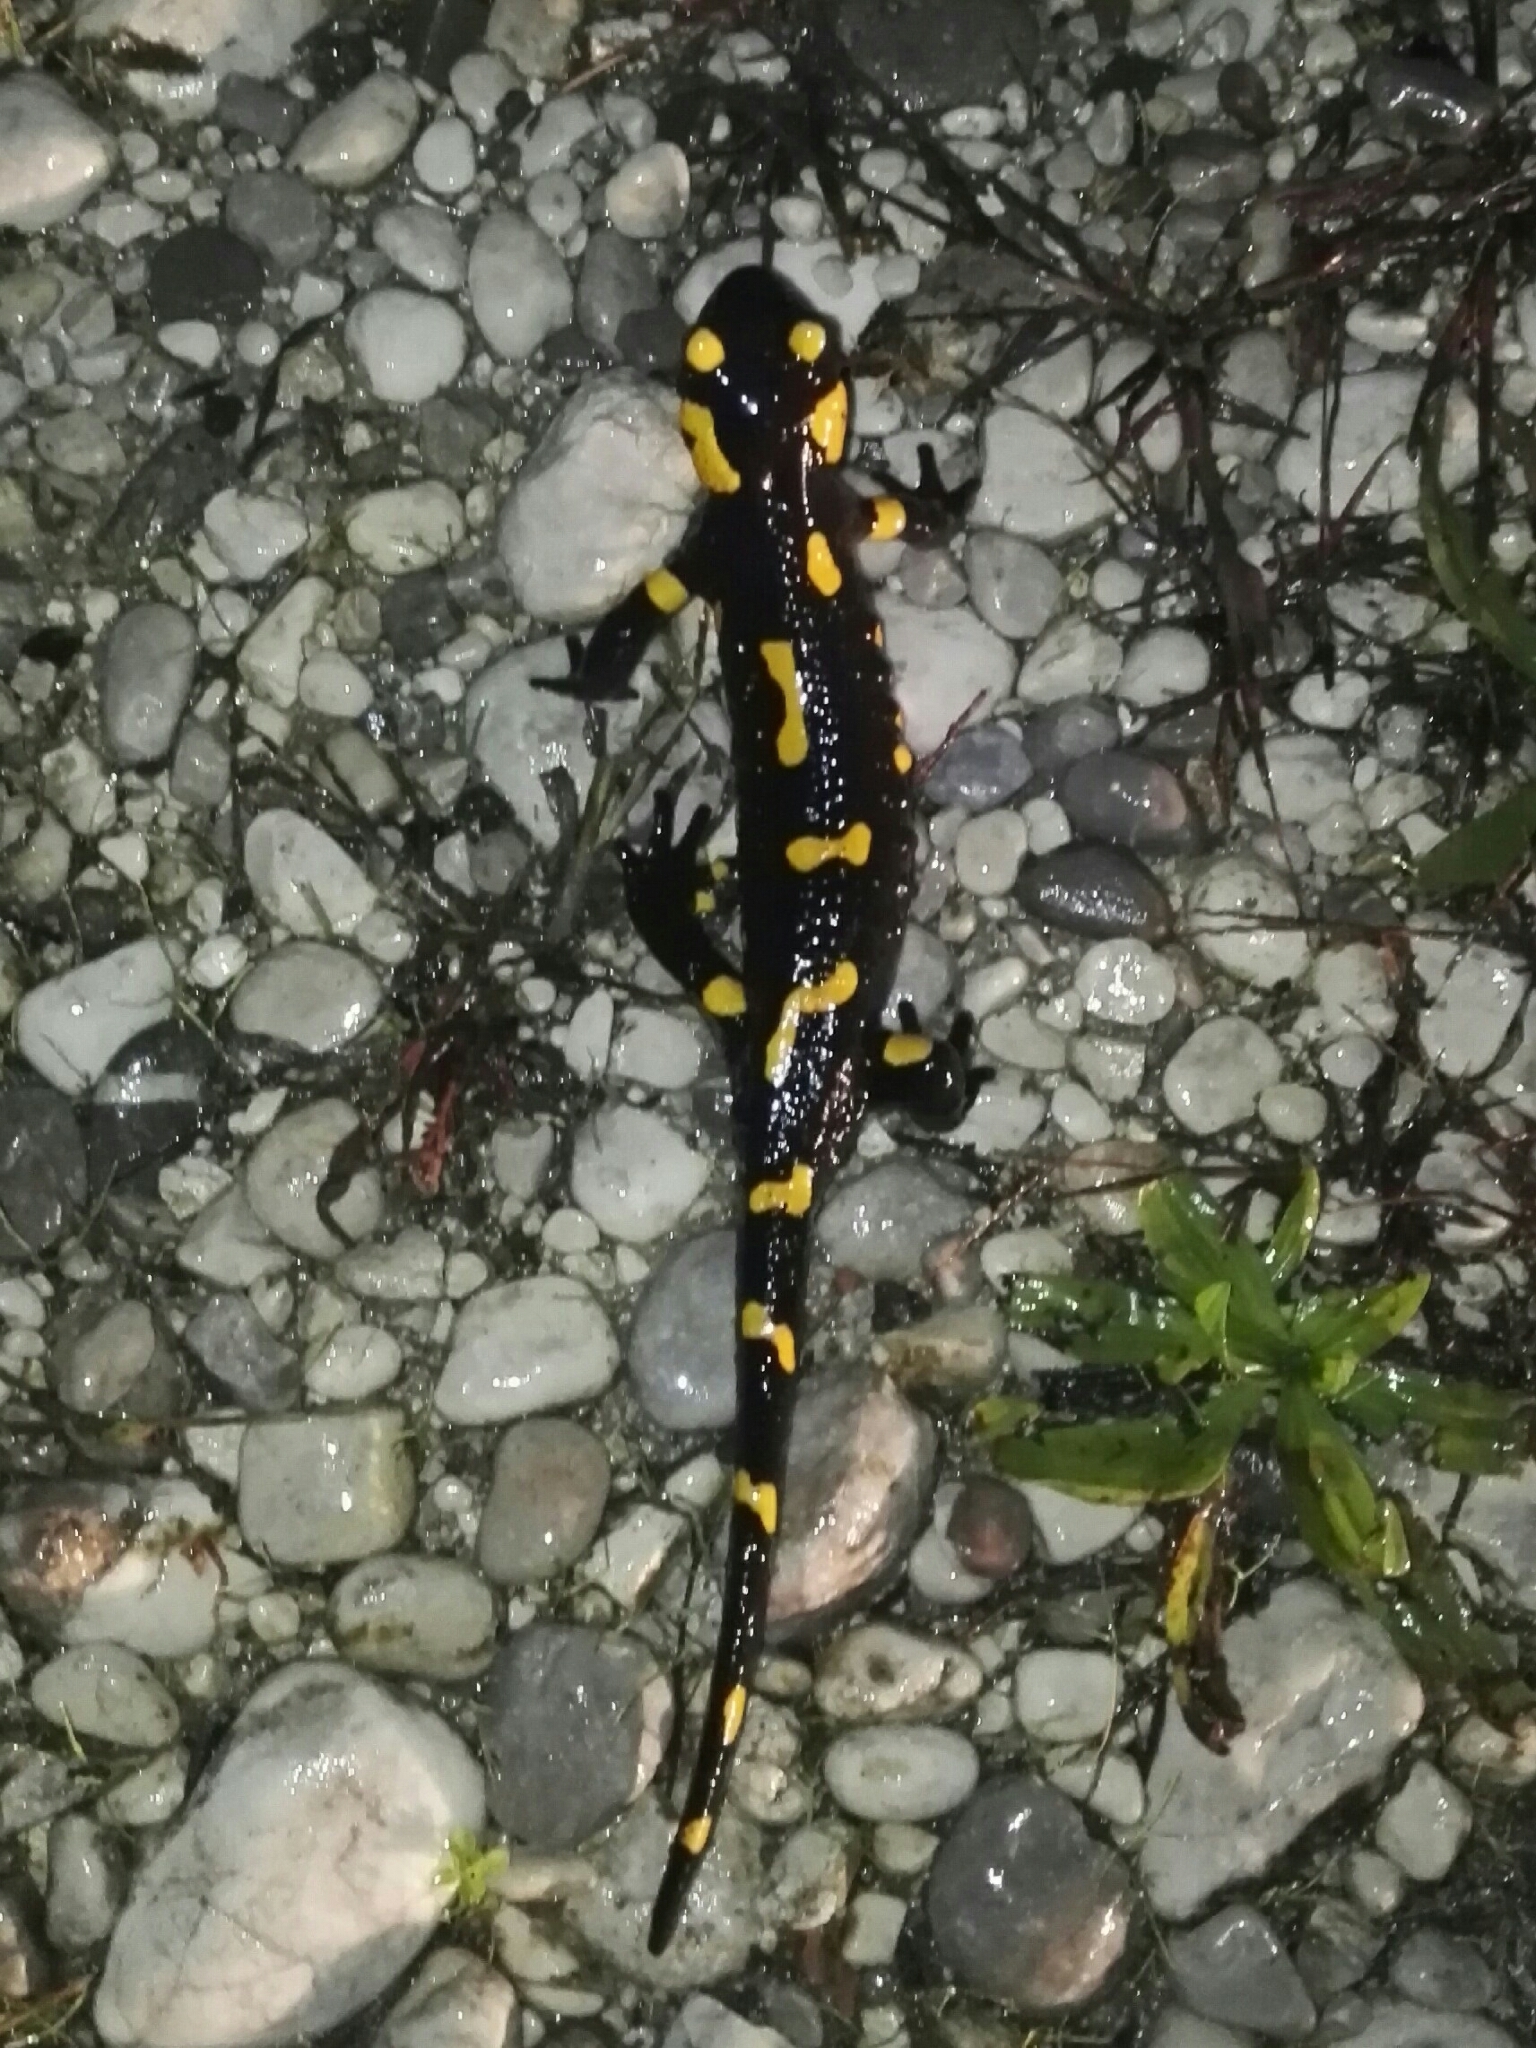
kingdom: Animalia
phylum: Chordata
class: Amphibia
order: Caudata
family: Salamandridae
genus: Salamandra
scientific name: Salamandra salamandra
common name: Fire salamander
